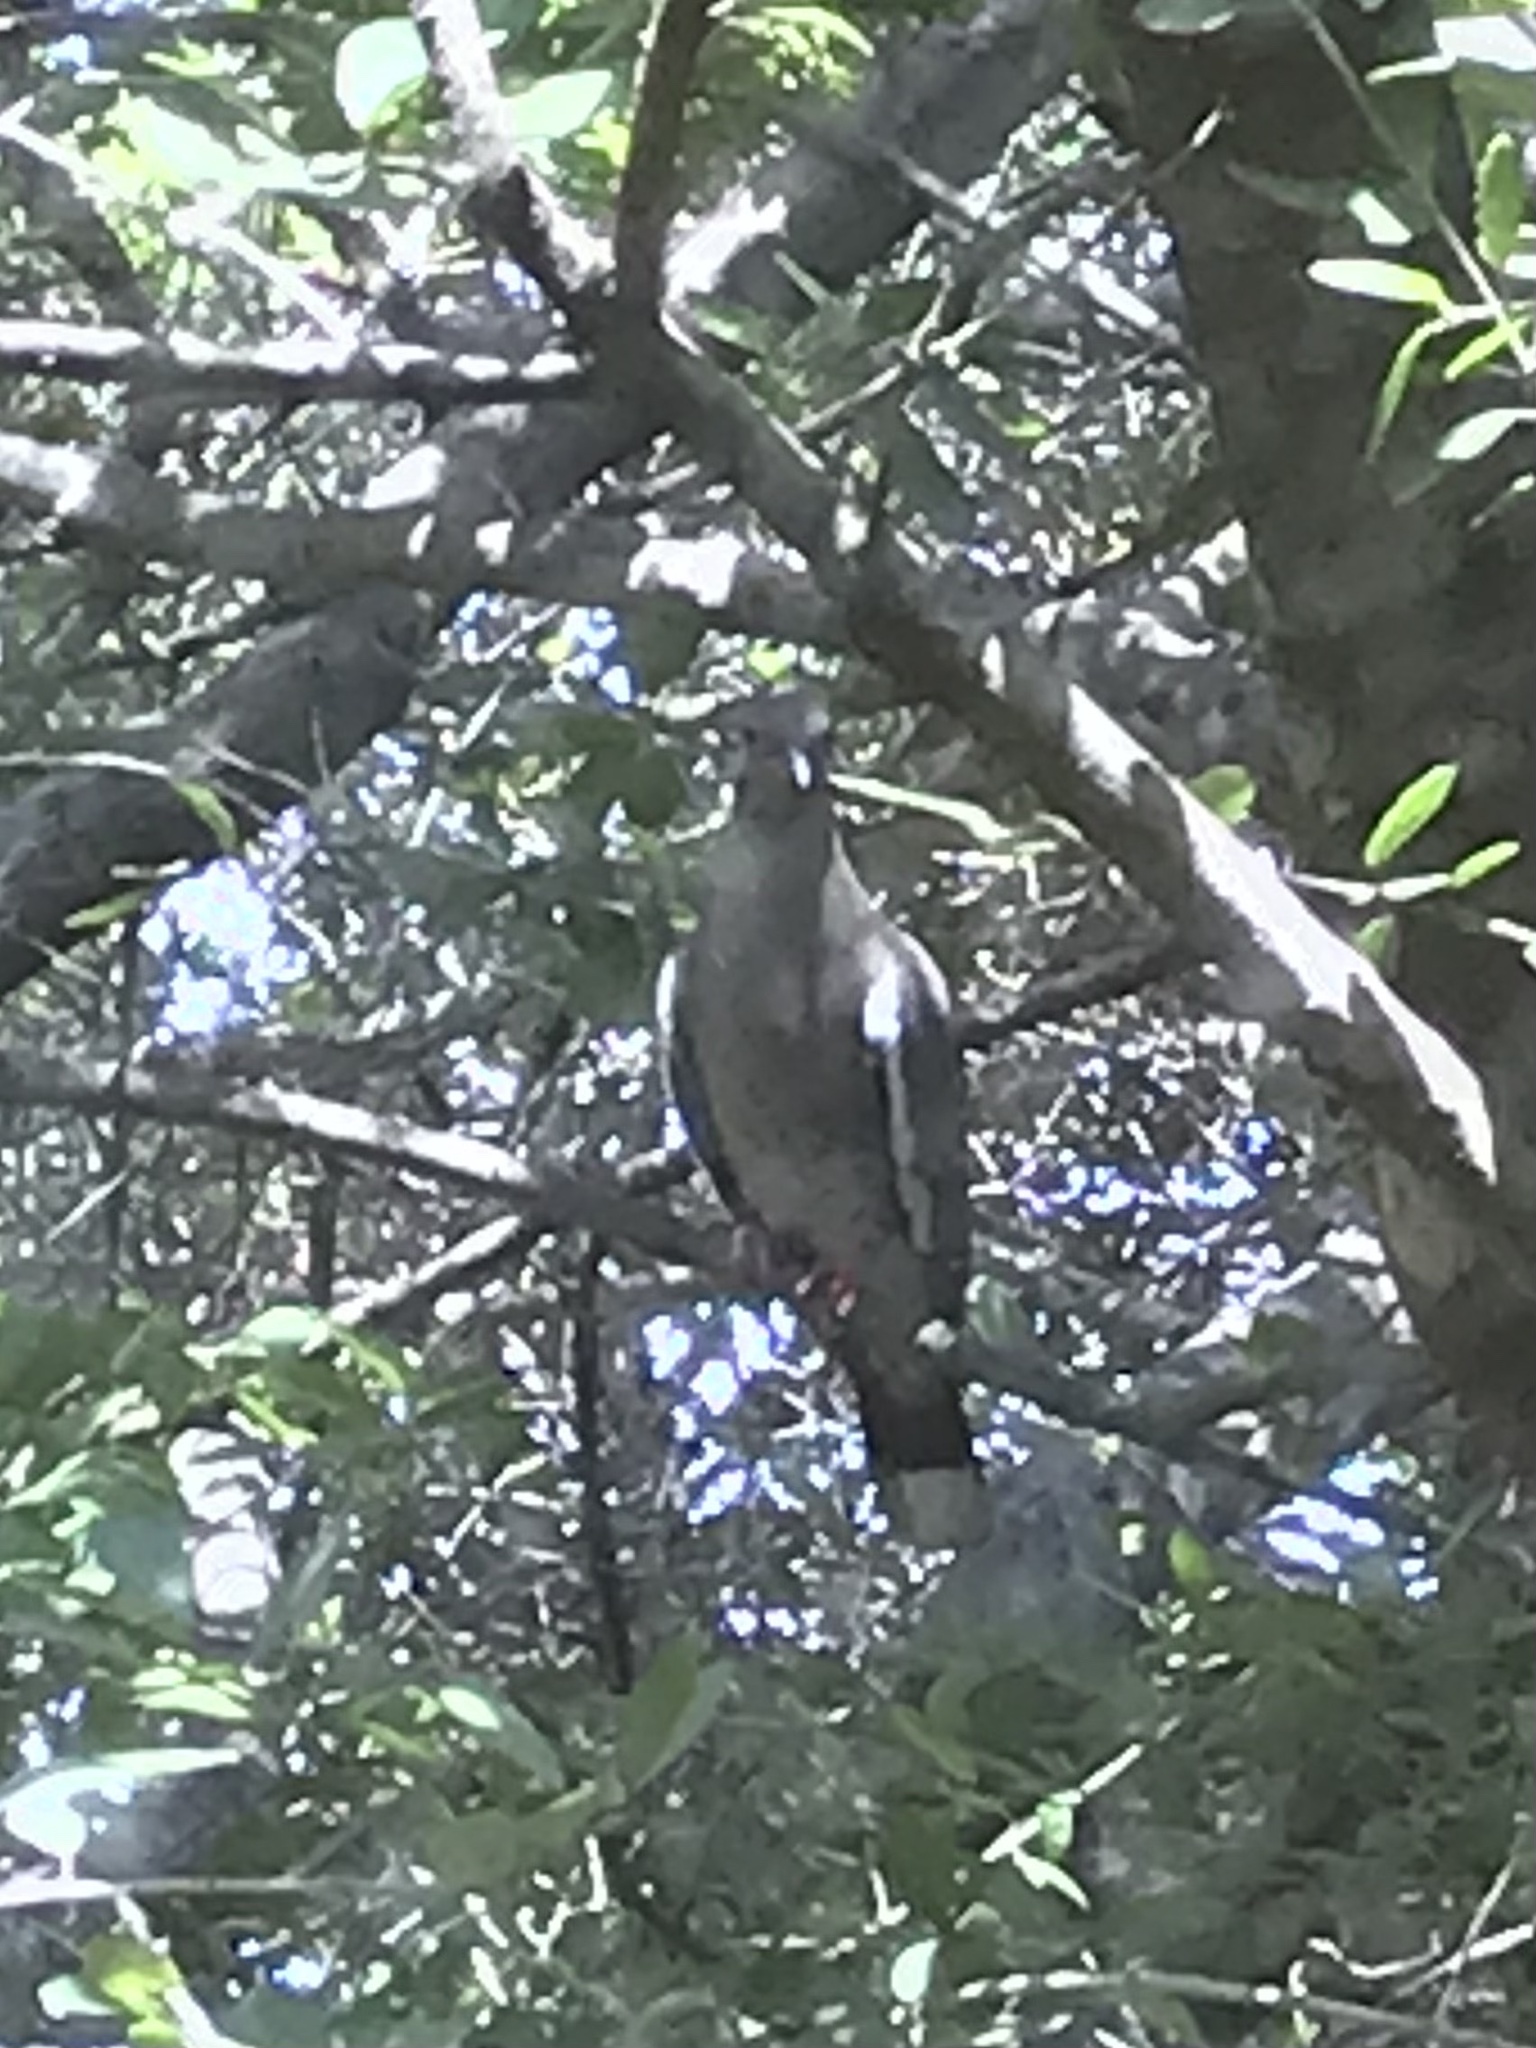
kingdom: Animalia
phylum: Chordata
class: Aves
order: Columbiformes
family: Columbidae
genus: Zenaida
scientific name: Zenaida asiatica
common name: White-winged dove
